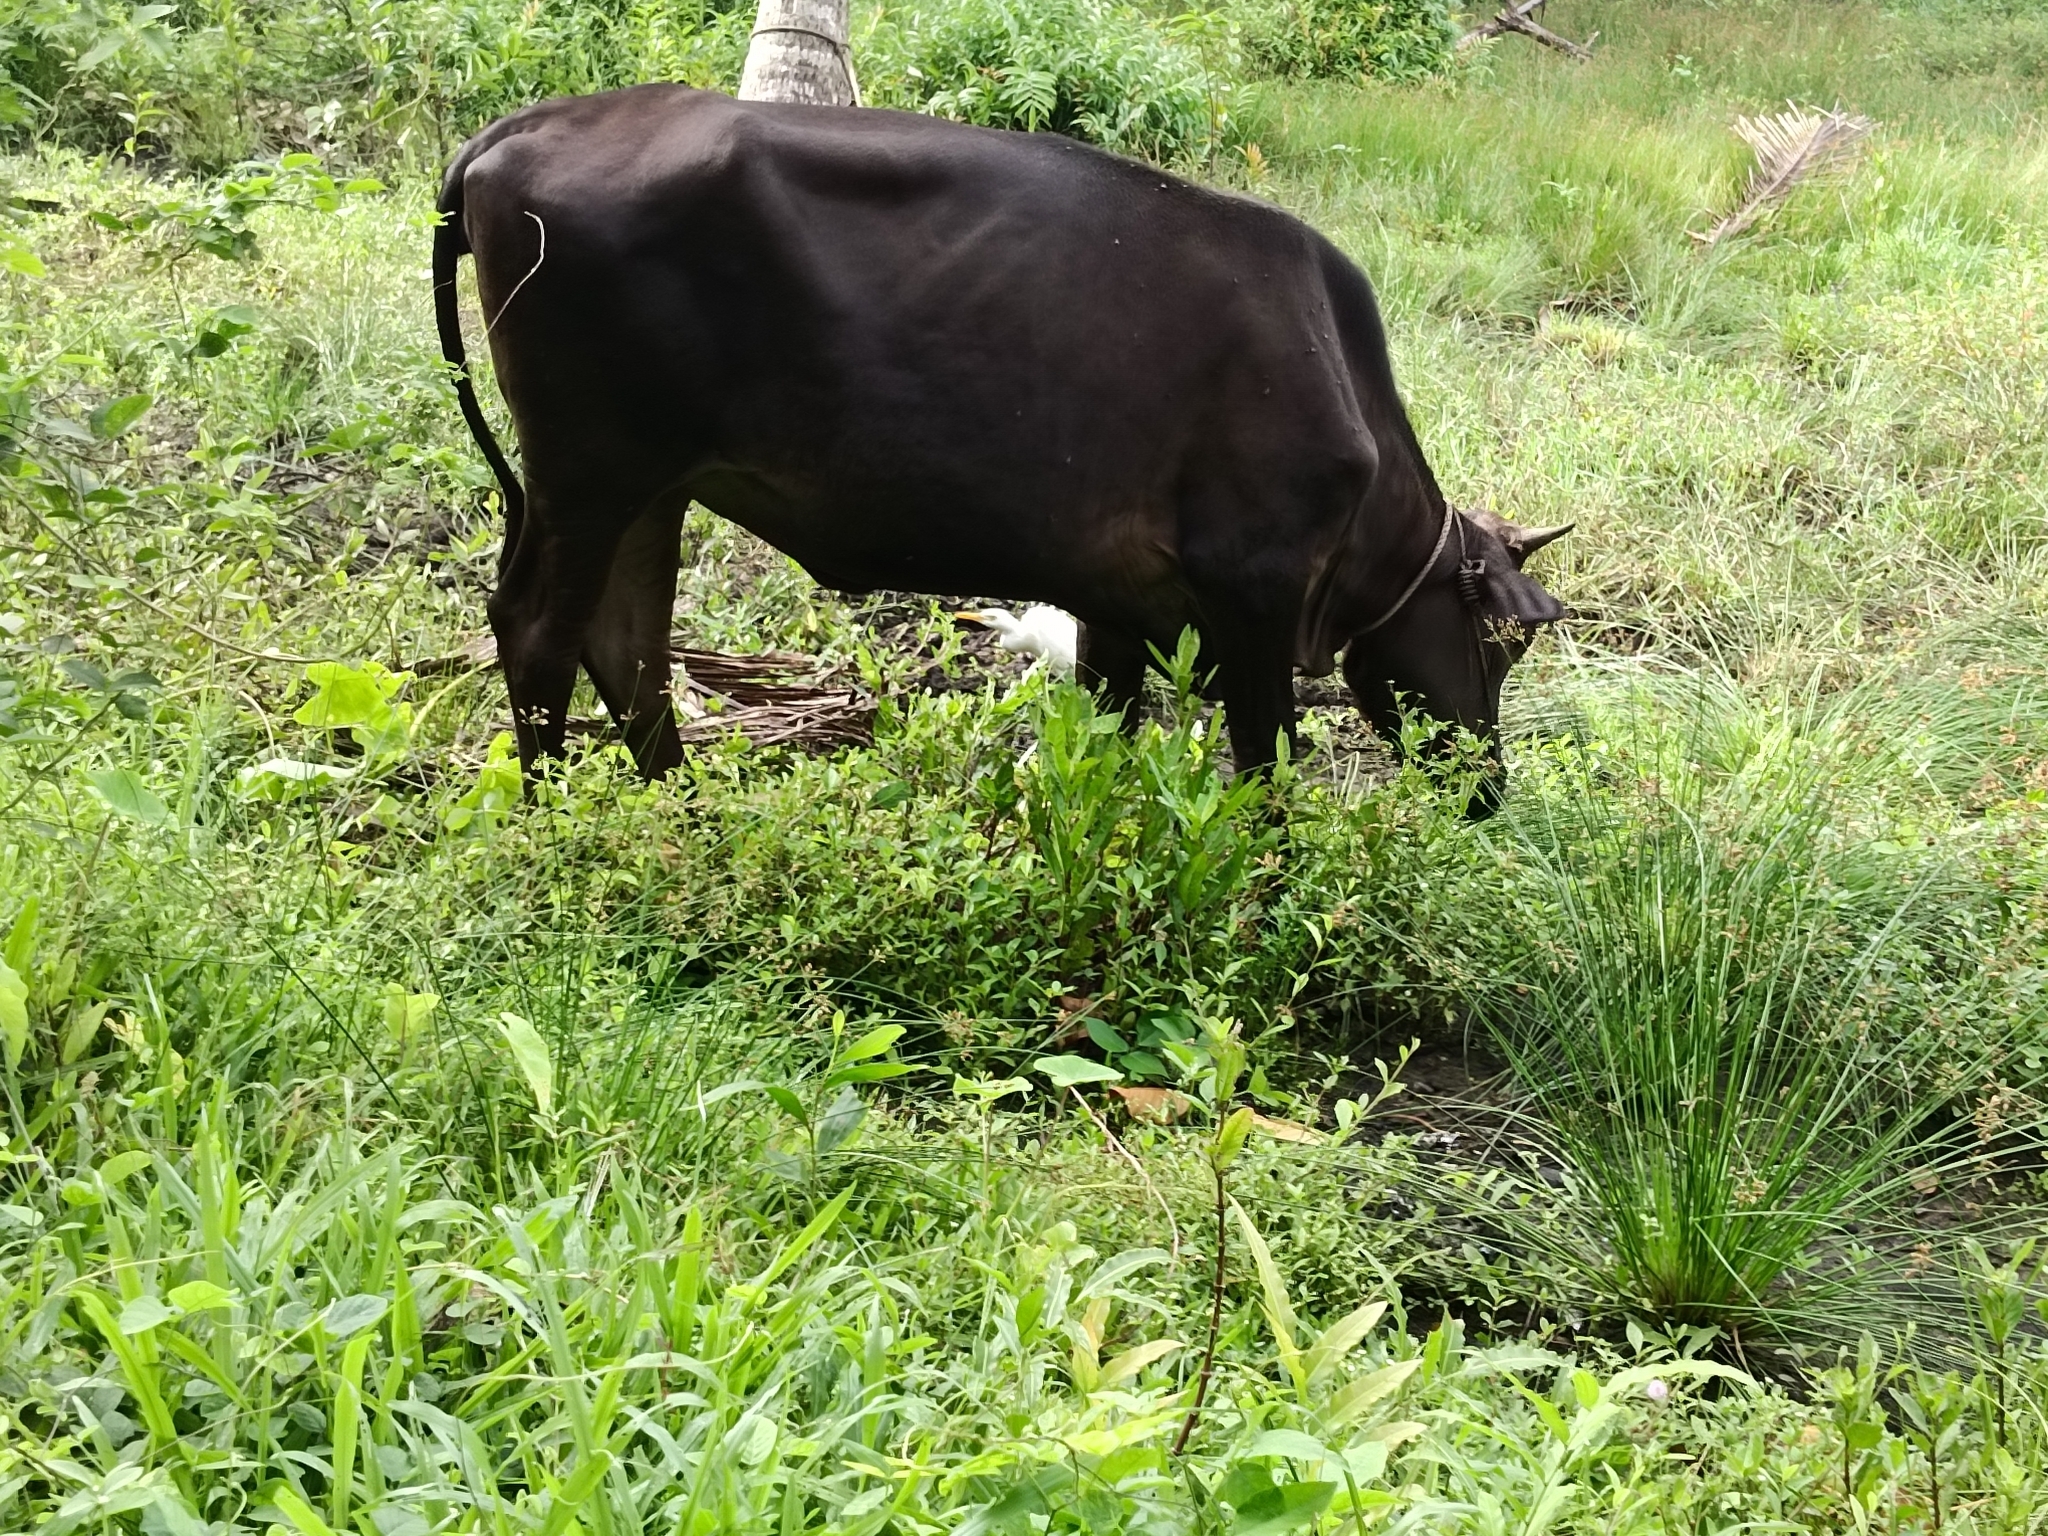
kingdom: Animalia
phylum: Chordata
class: Aves
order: Pelecaniformes
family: Ardeidae
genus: Bubulcus
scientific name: Bubulcus coromandus
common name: Eastern cattle egret
